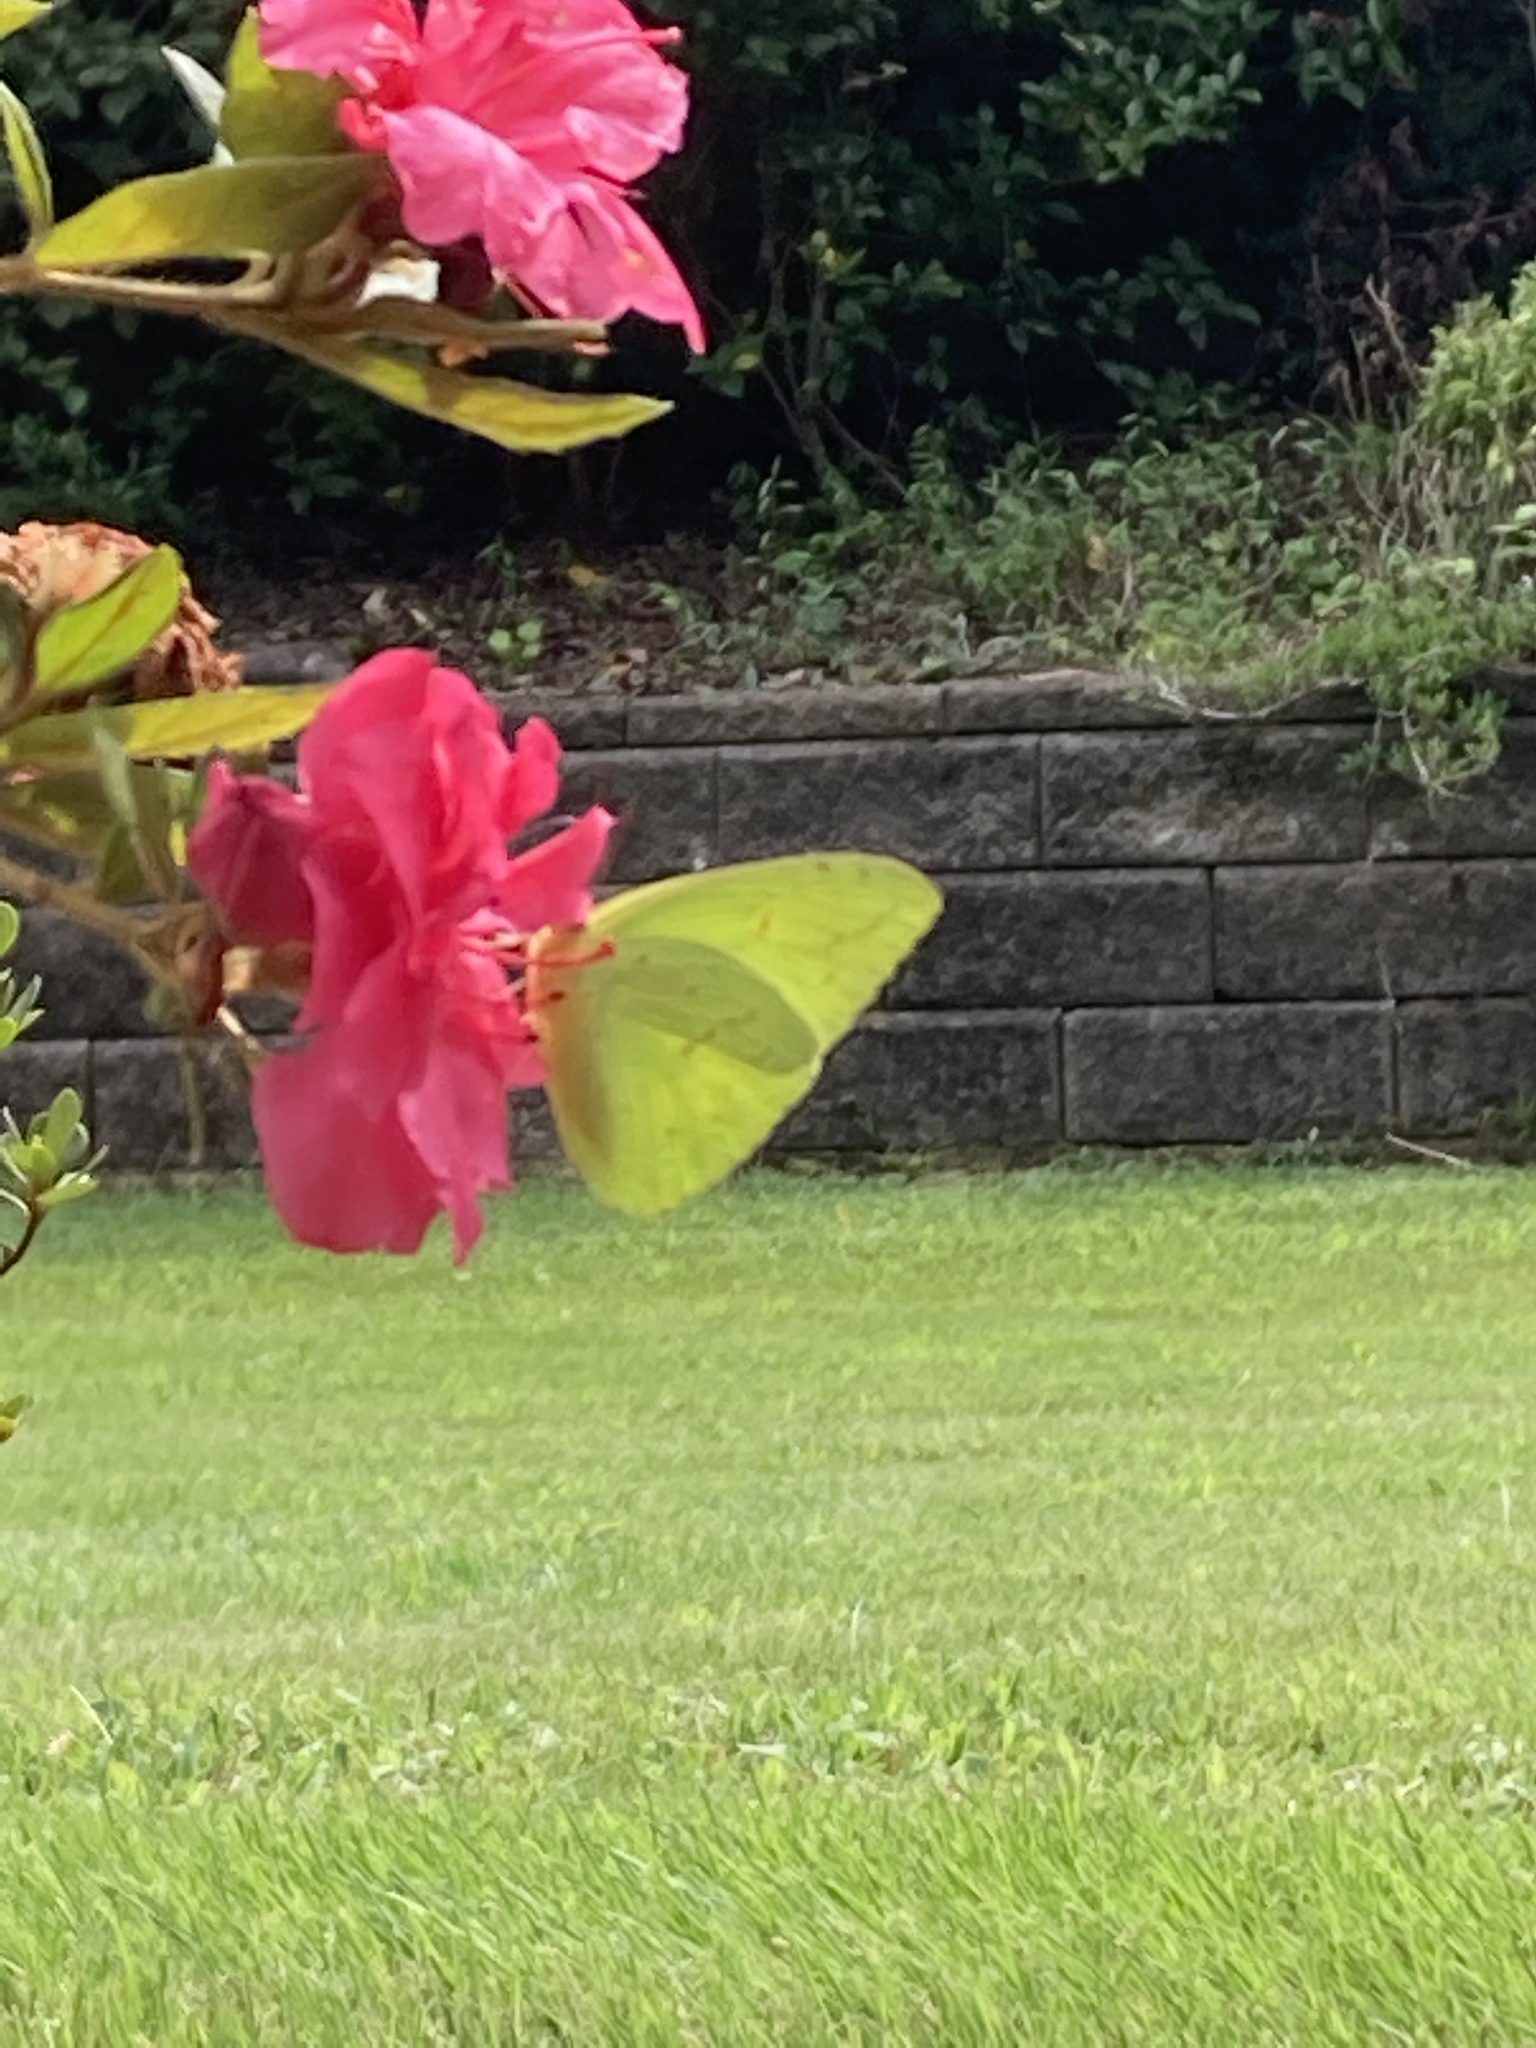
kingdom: Animalia
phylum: Arthropoda
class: Insecta
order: Lepidoptera
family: Pieridae
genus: Phoebis
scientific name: Phoebis sennae
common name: Cloudless sulphur
